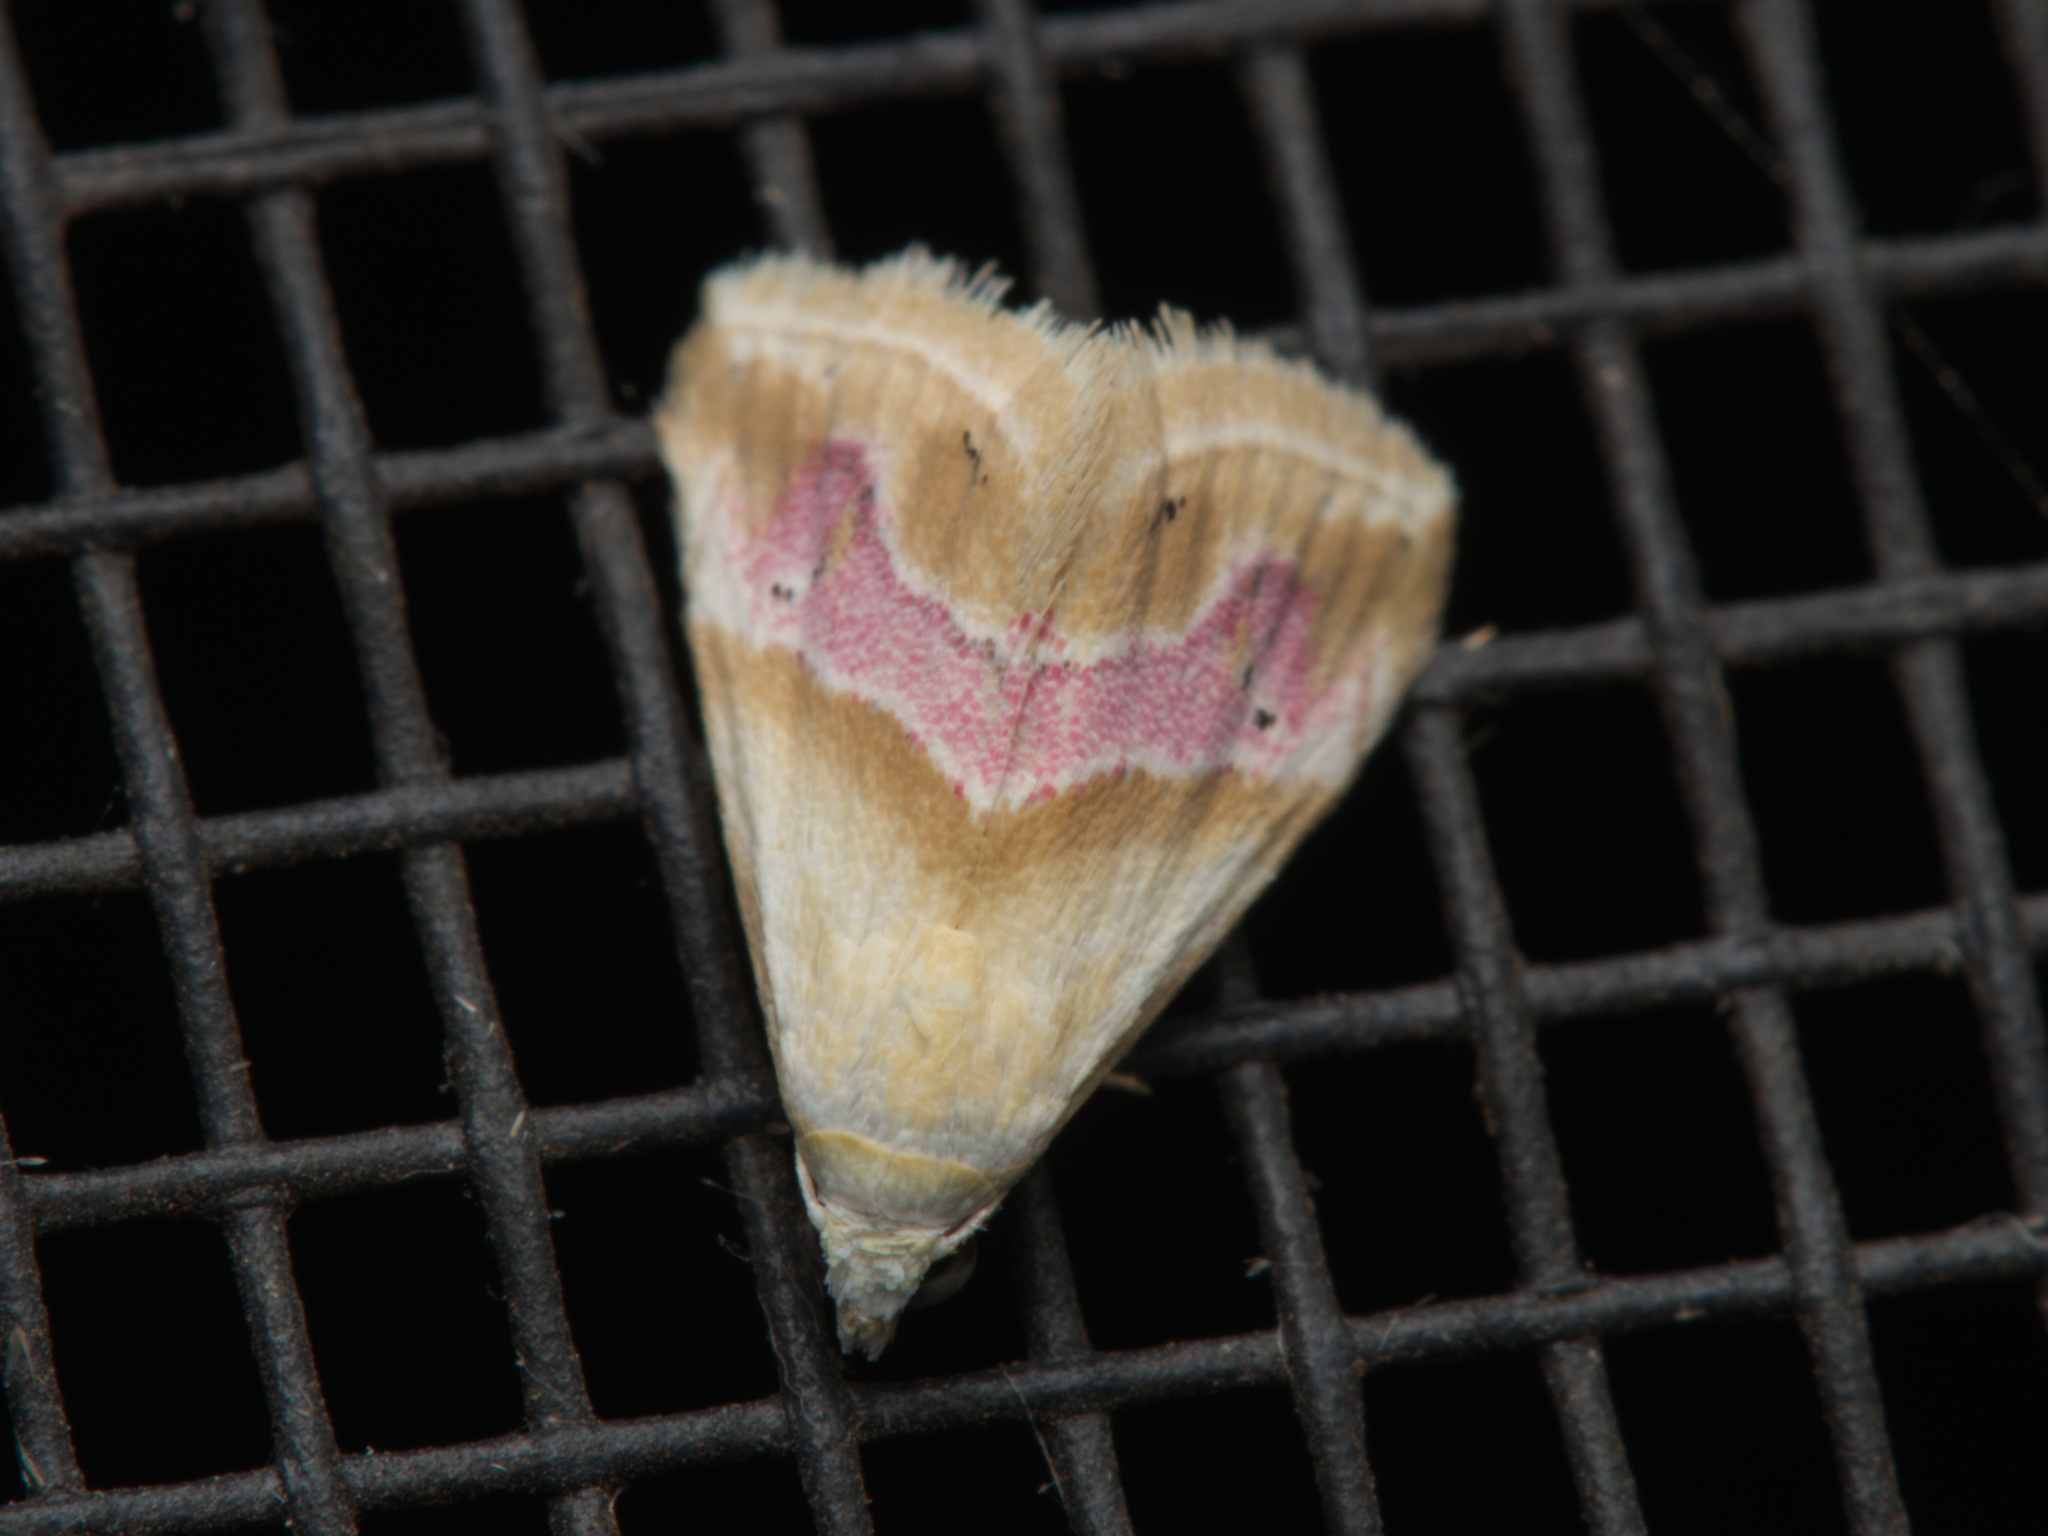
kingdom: Animalia
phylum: Arthropoda
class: Insecta
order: Lepidoptera
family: Noctuidae
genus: Eublemma
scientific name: Eublemma roseana
